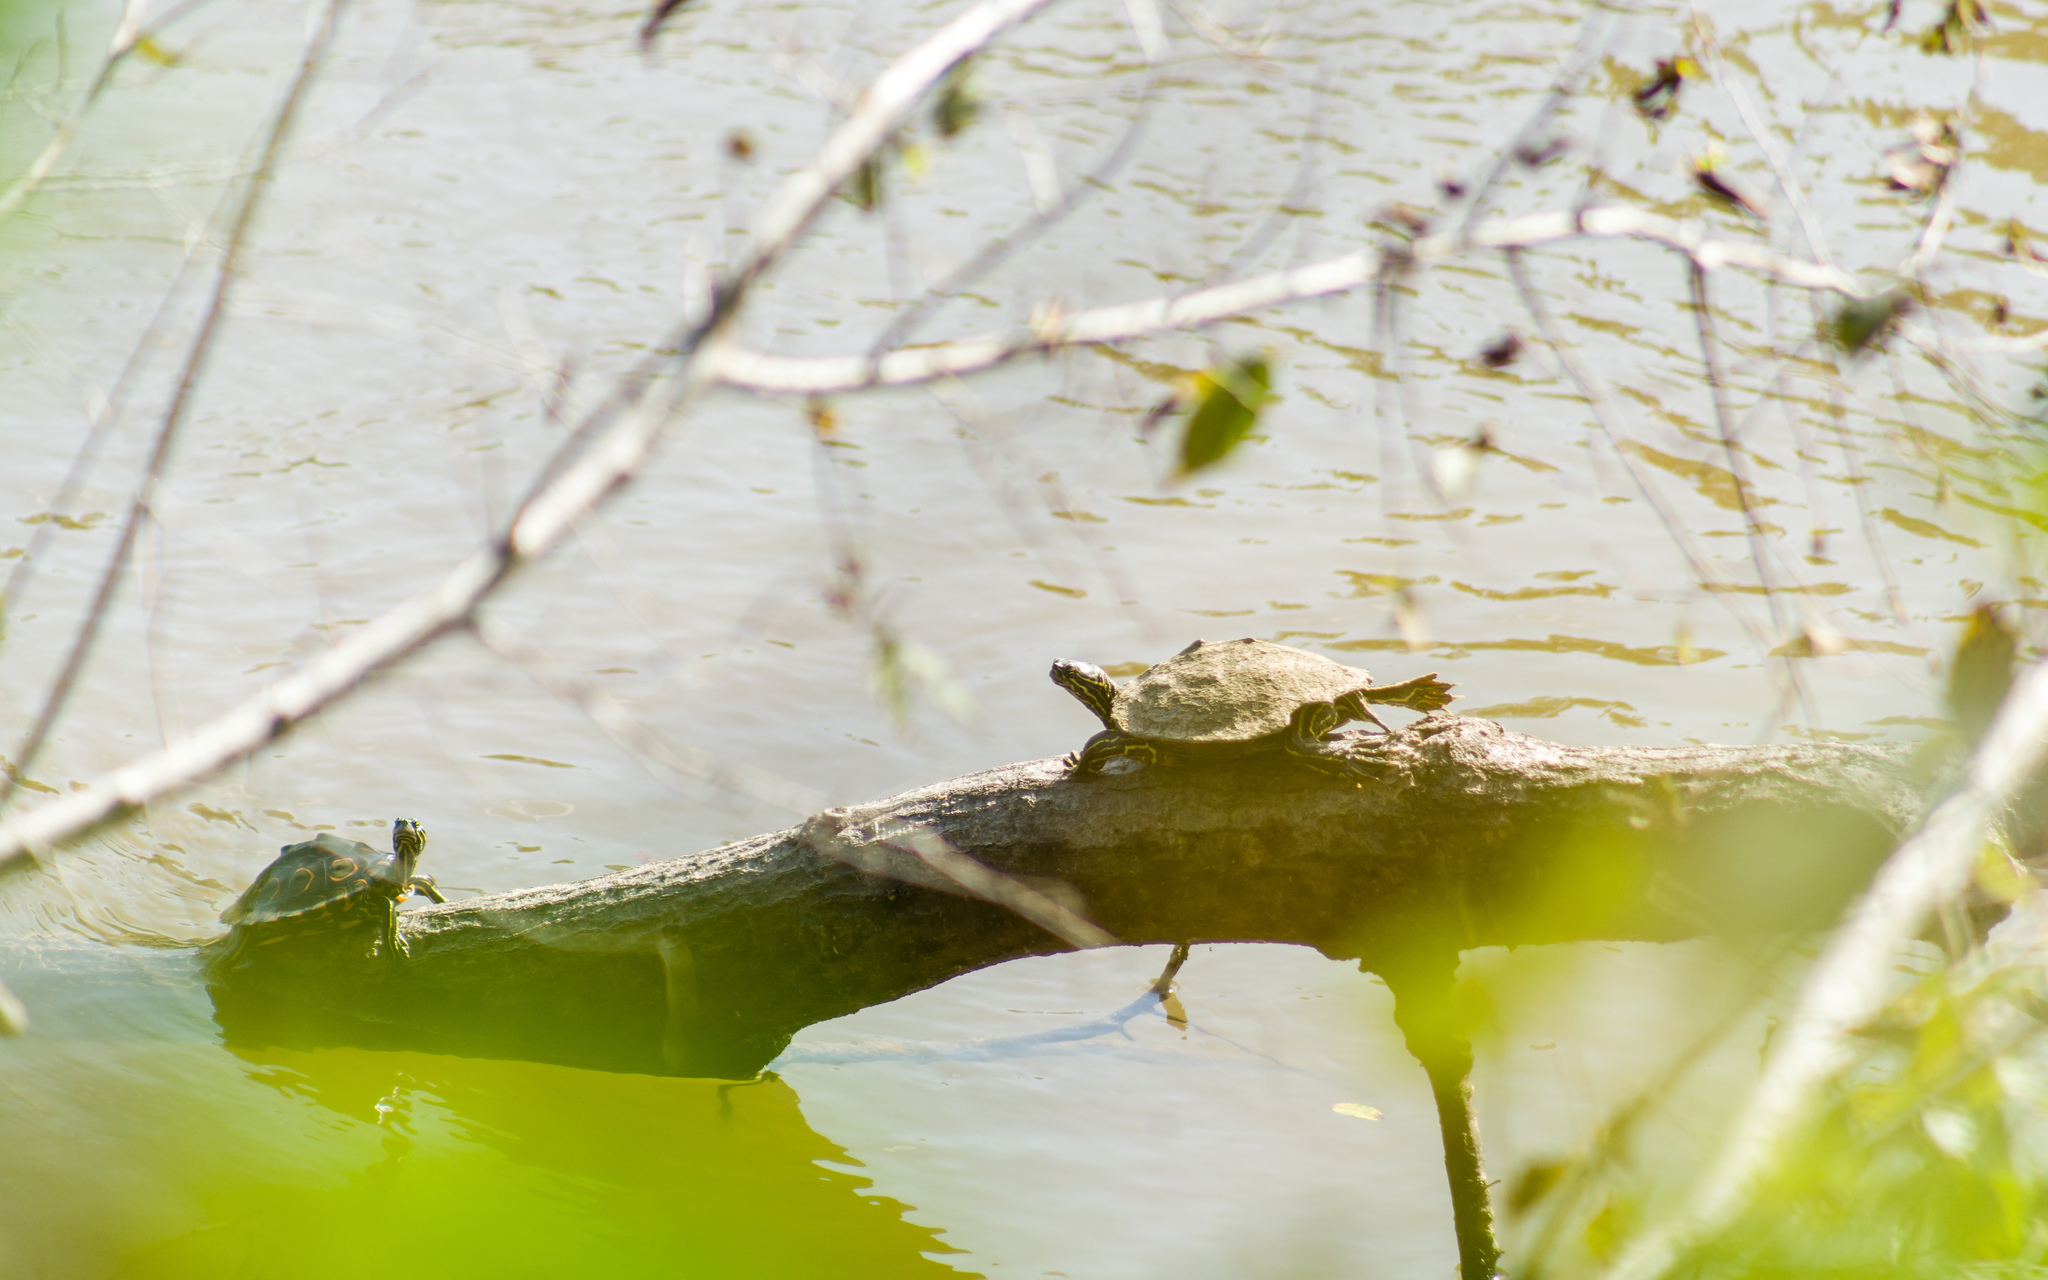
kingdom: Animalia
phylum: Chordata
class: Testudines
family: Emydidae
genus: Graptemys
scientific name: Graptemys oculifera
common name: Ringed map turtle
